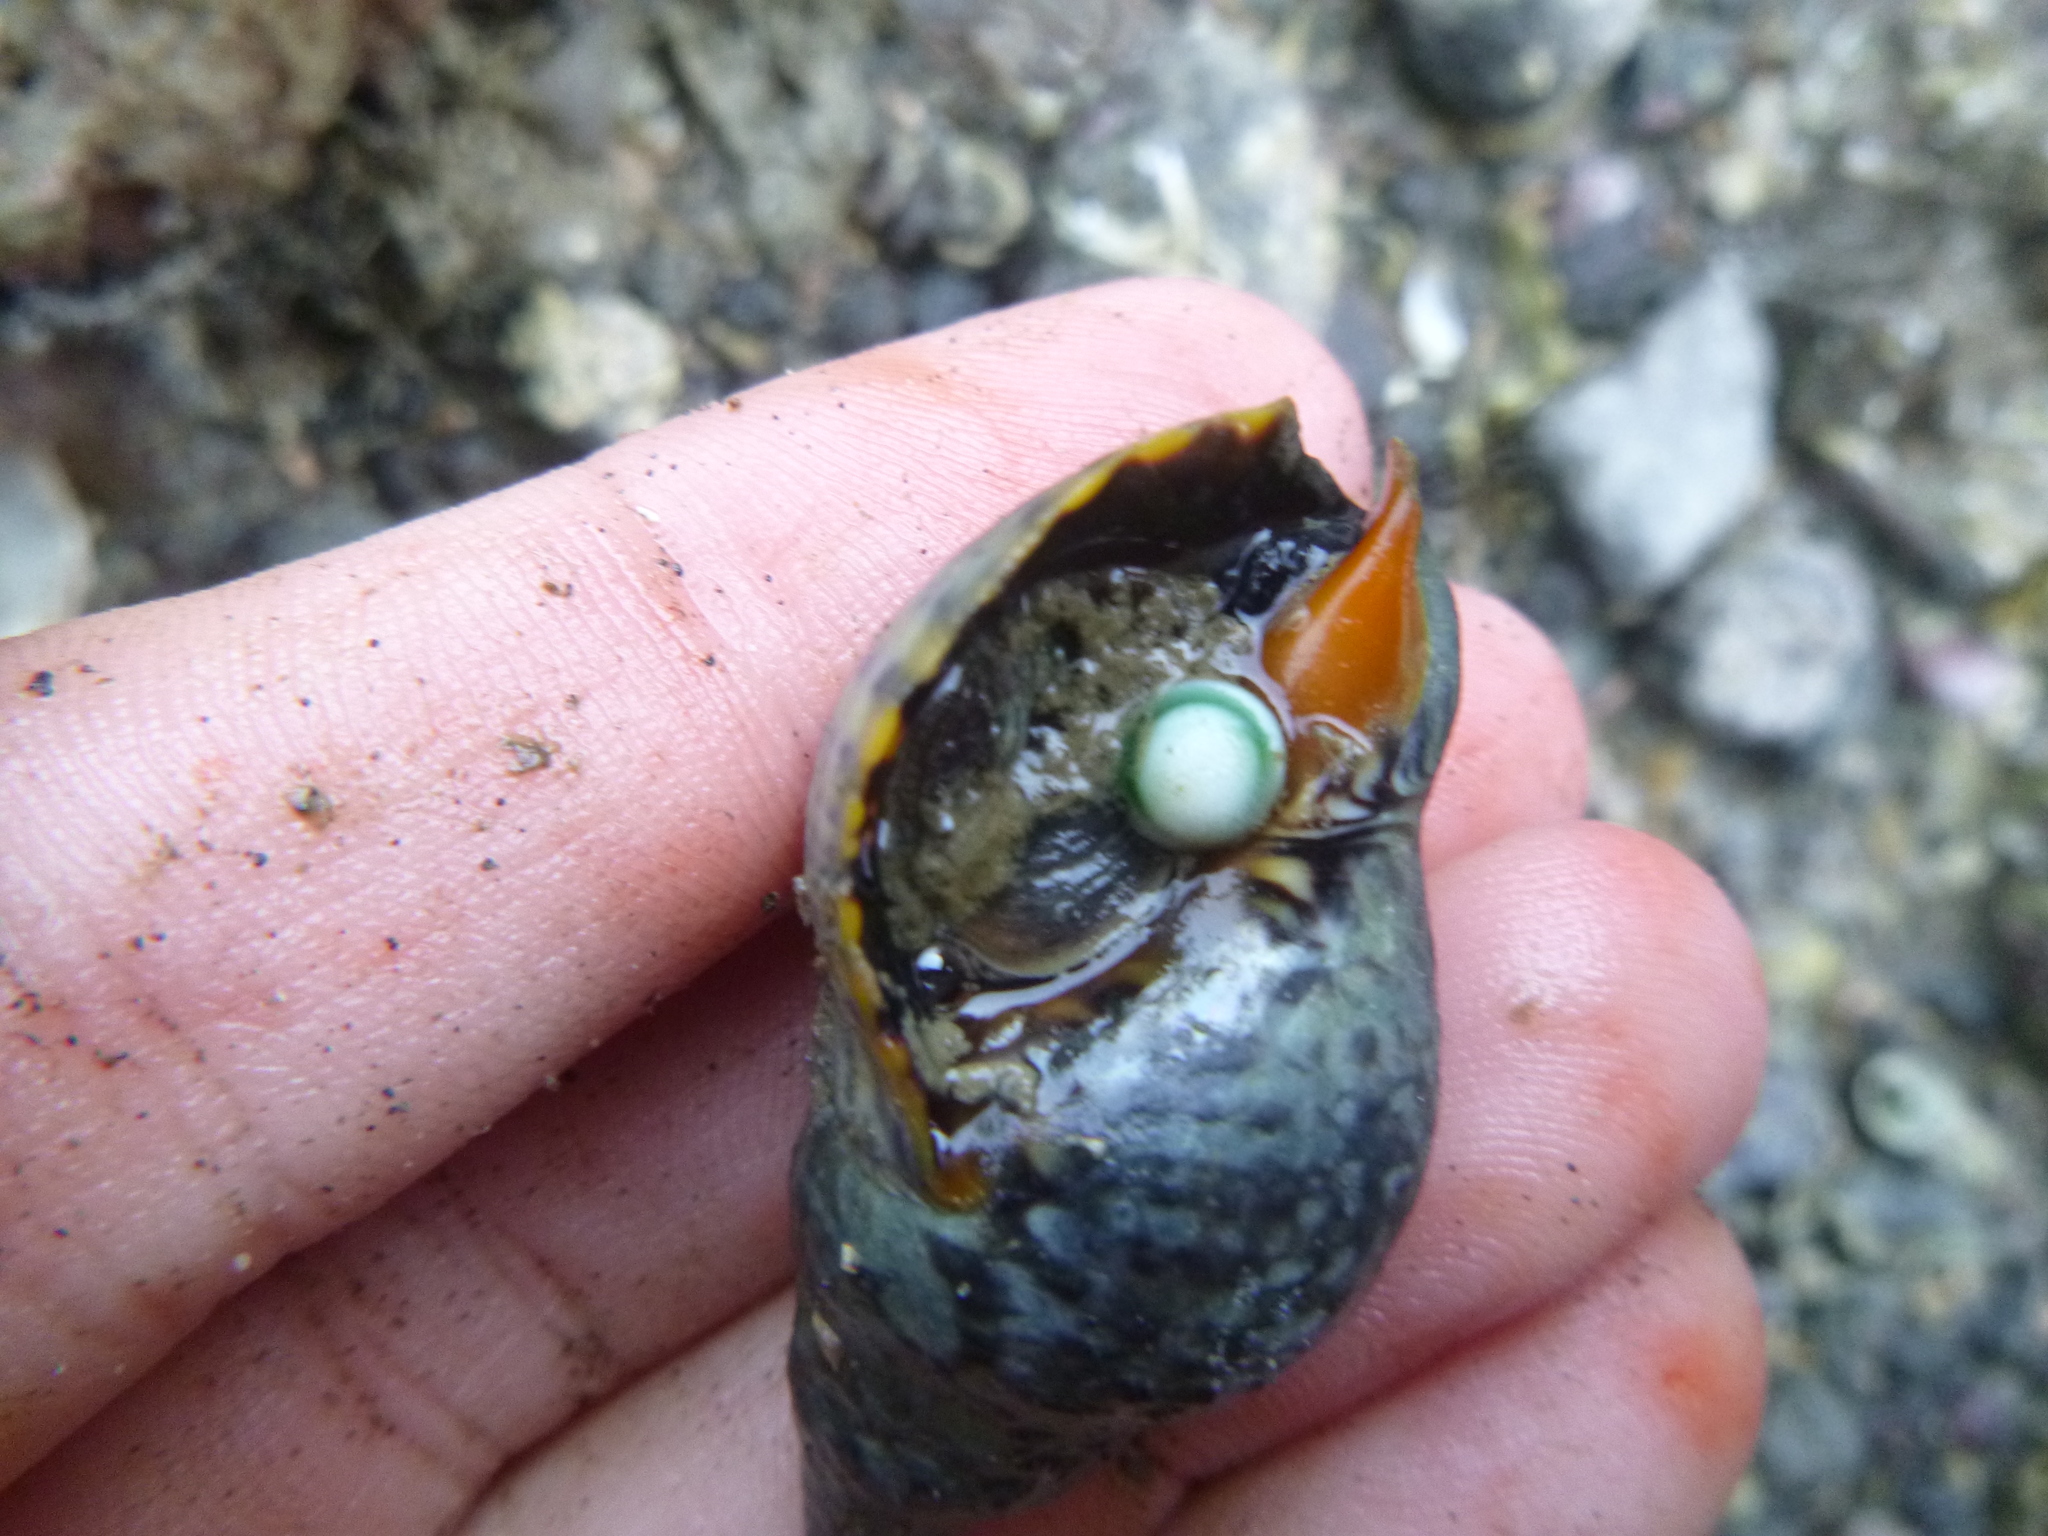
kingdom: Animalia
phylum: Mollusca
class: Gastropoda
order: Trochida
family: Turbinidae
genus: Lunella
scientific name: Lunella smaragda
